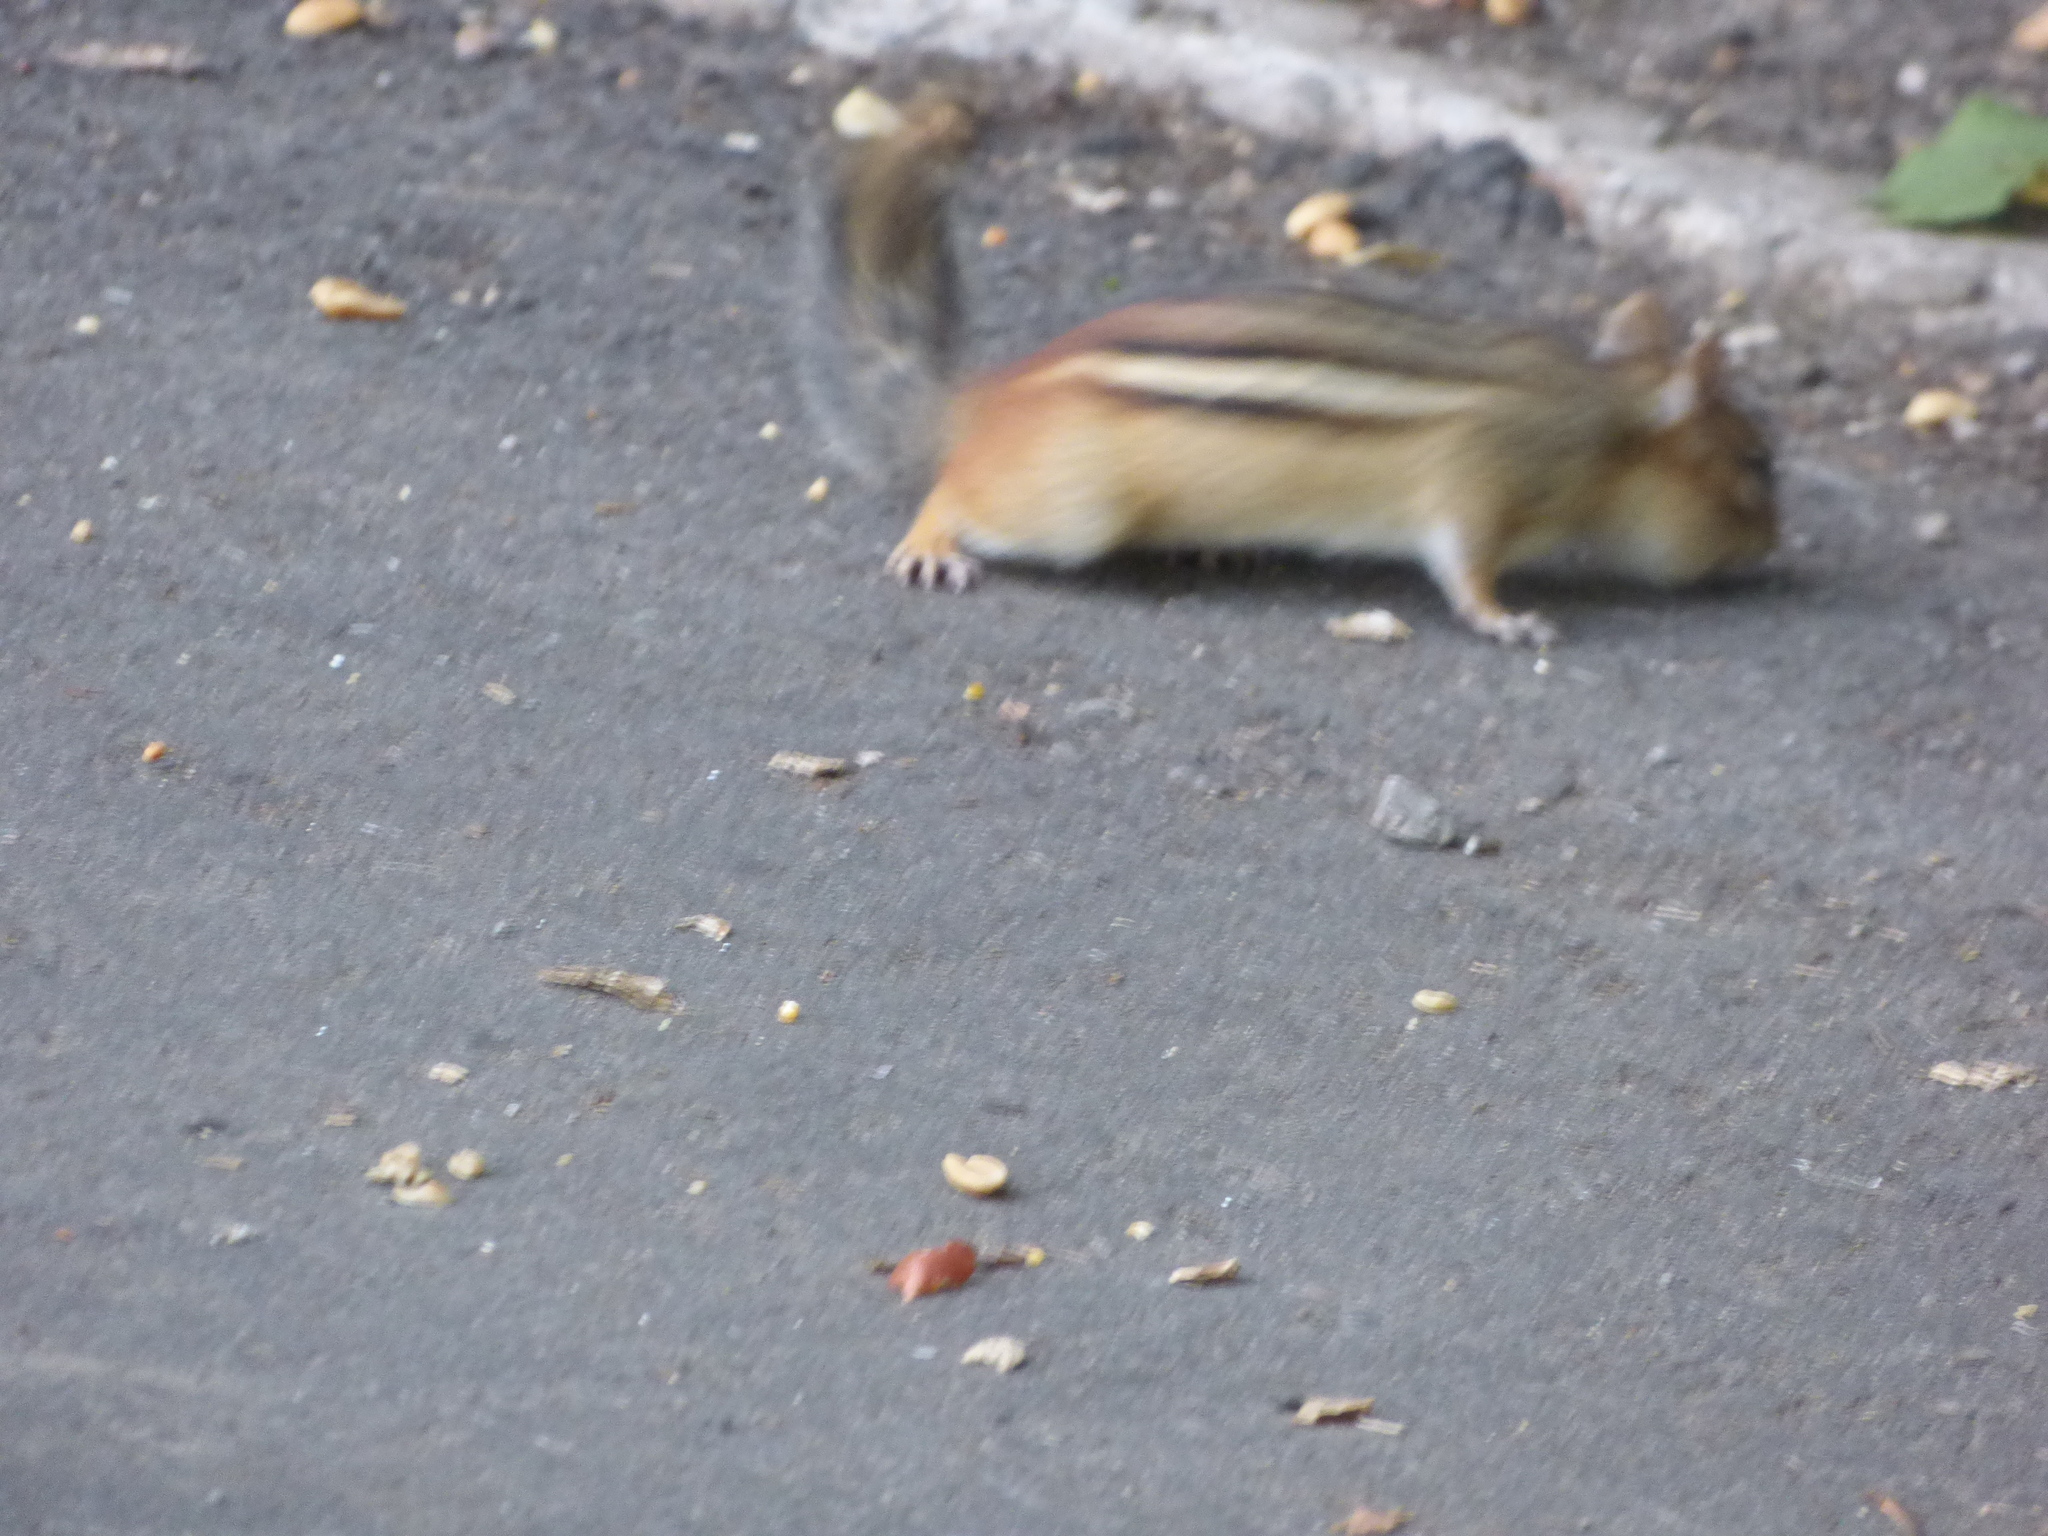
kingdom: Animalia
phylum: Chordata
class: Mammalia
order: Rodentia
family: Sciuridae
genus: Tamias
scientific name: Tamias striatus
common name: Eastern chipmunk
